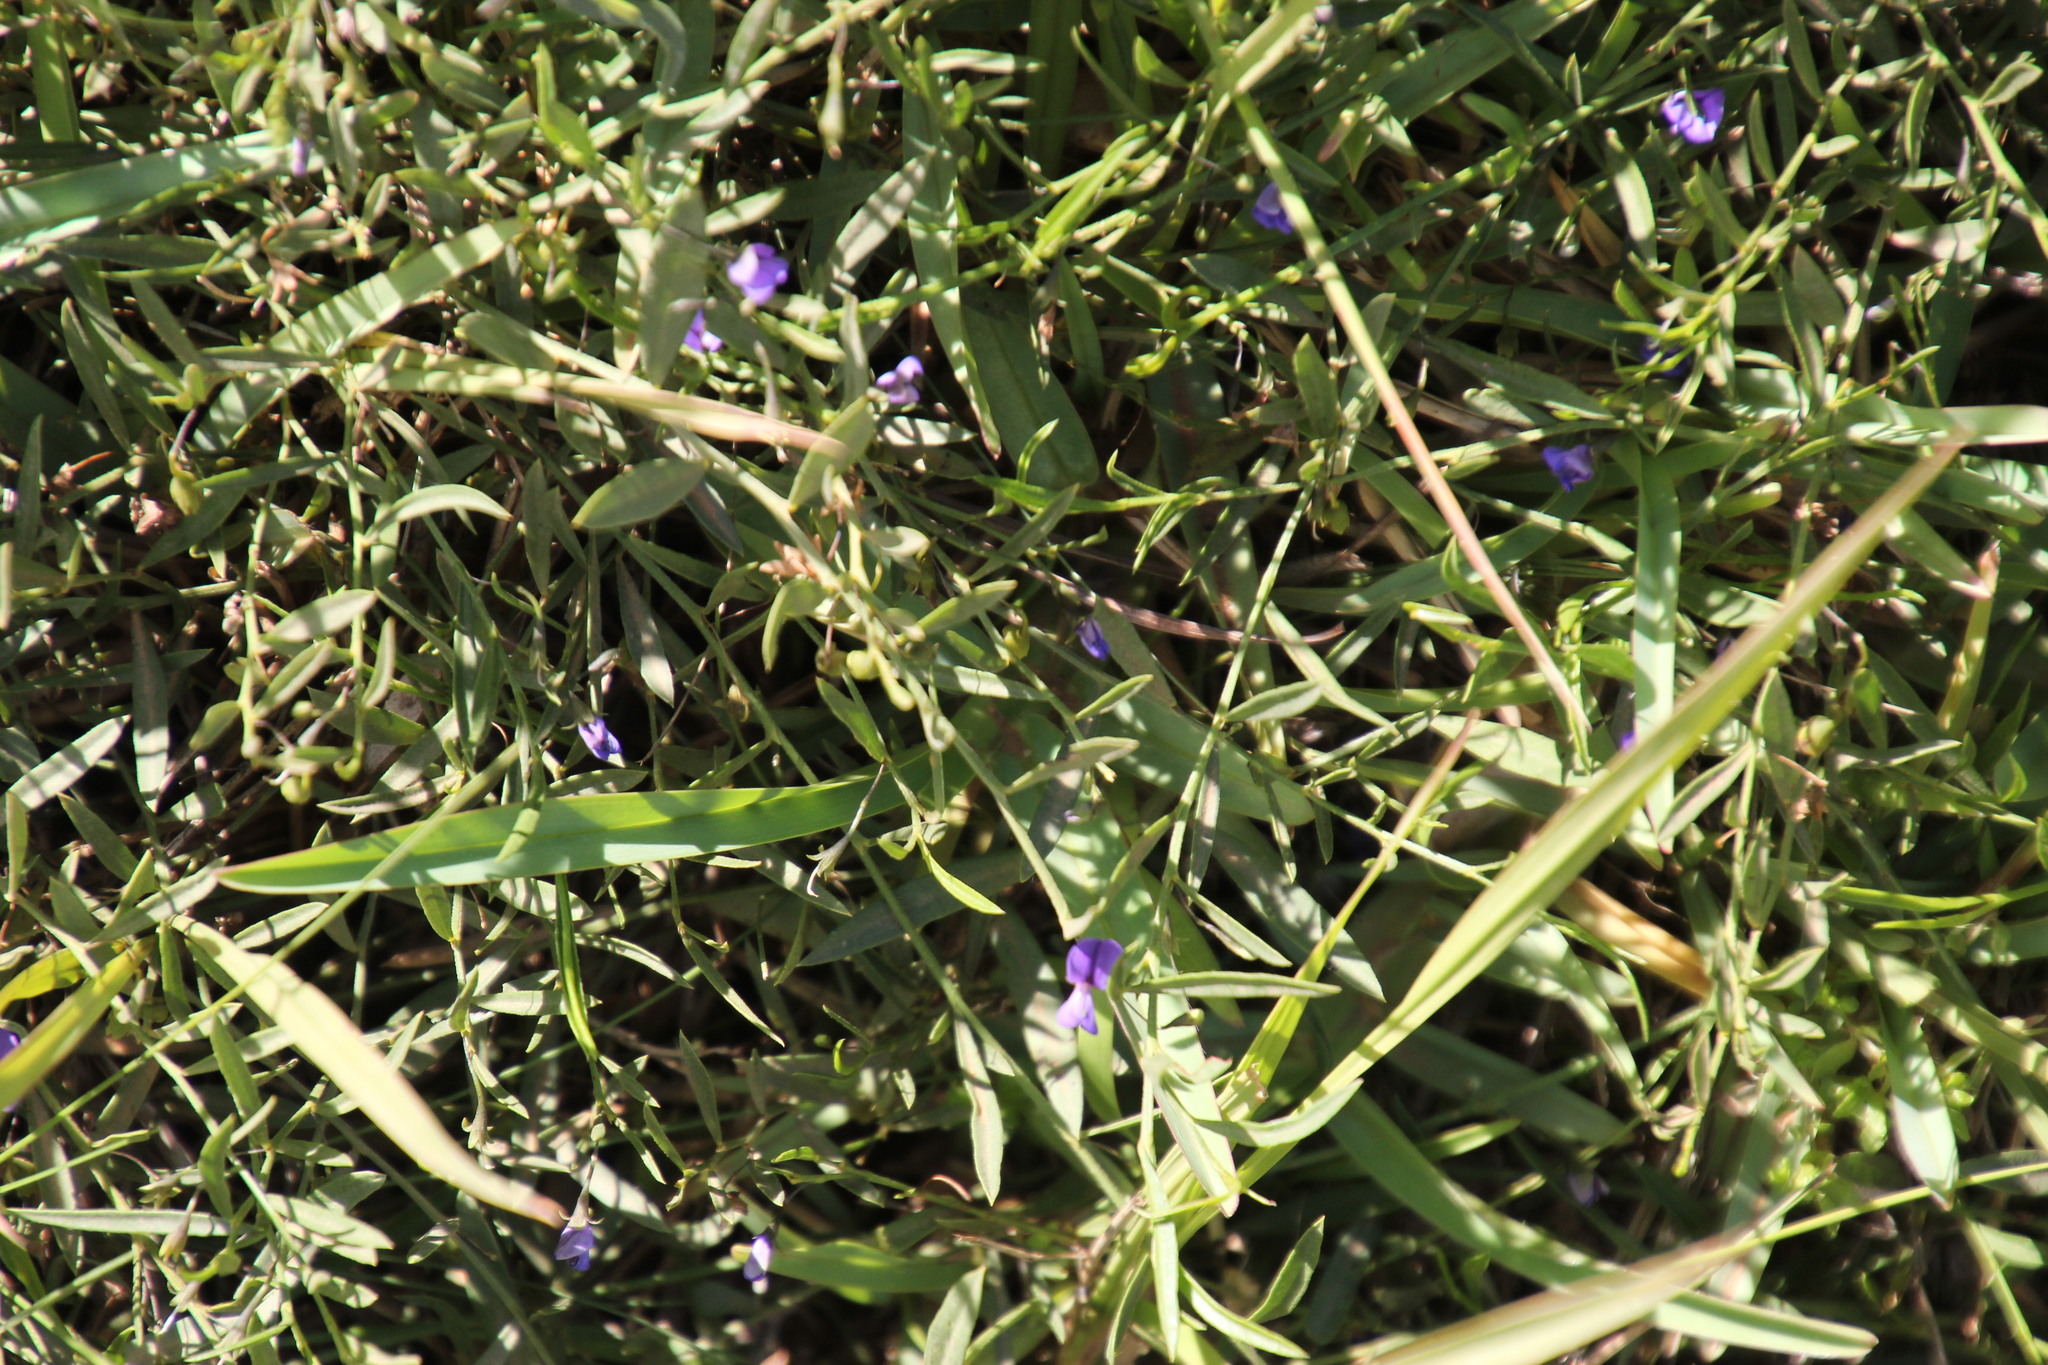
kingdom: Plantae
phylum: Tracheophyta
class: Magnoliopsida
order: Fabales
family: Fabaceae
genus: Psoralea
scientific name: Psoralea laxa
